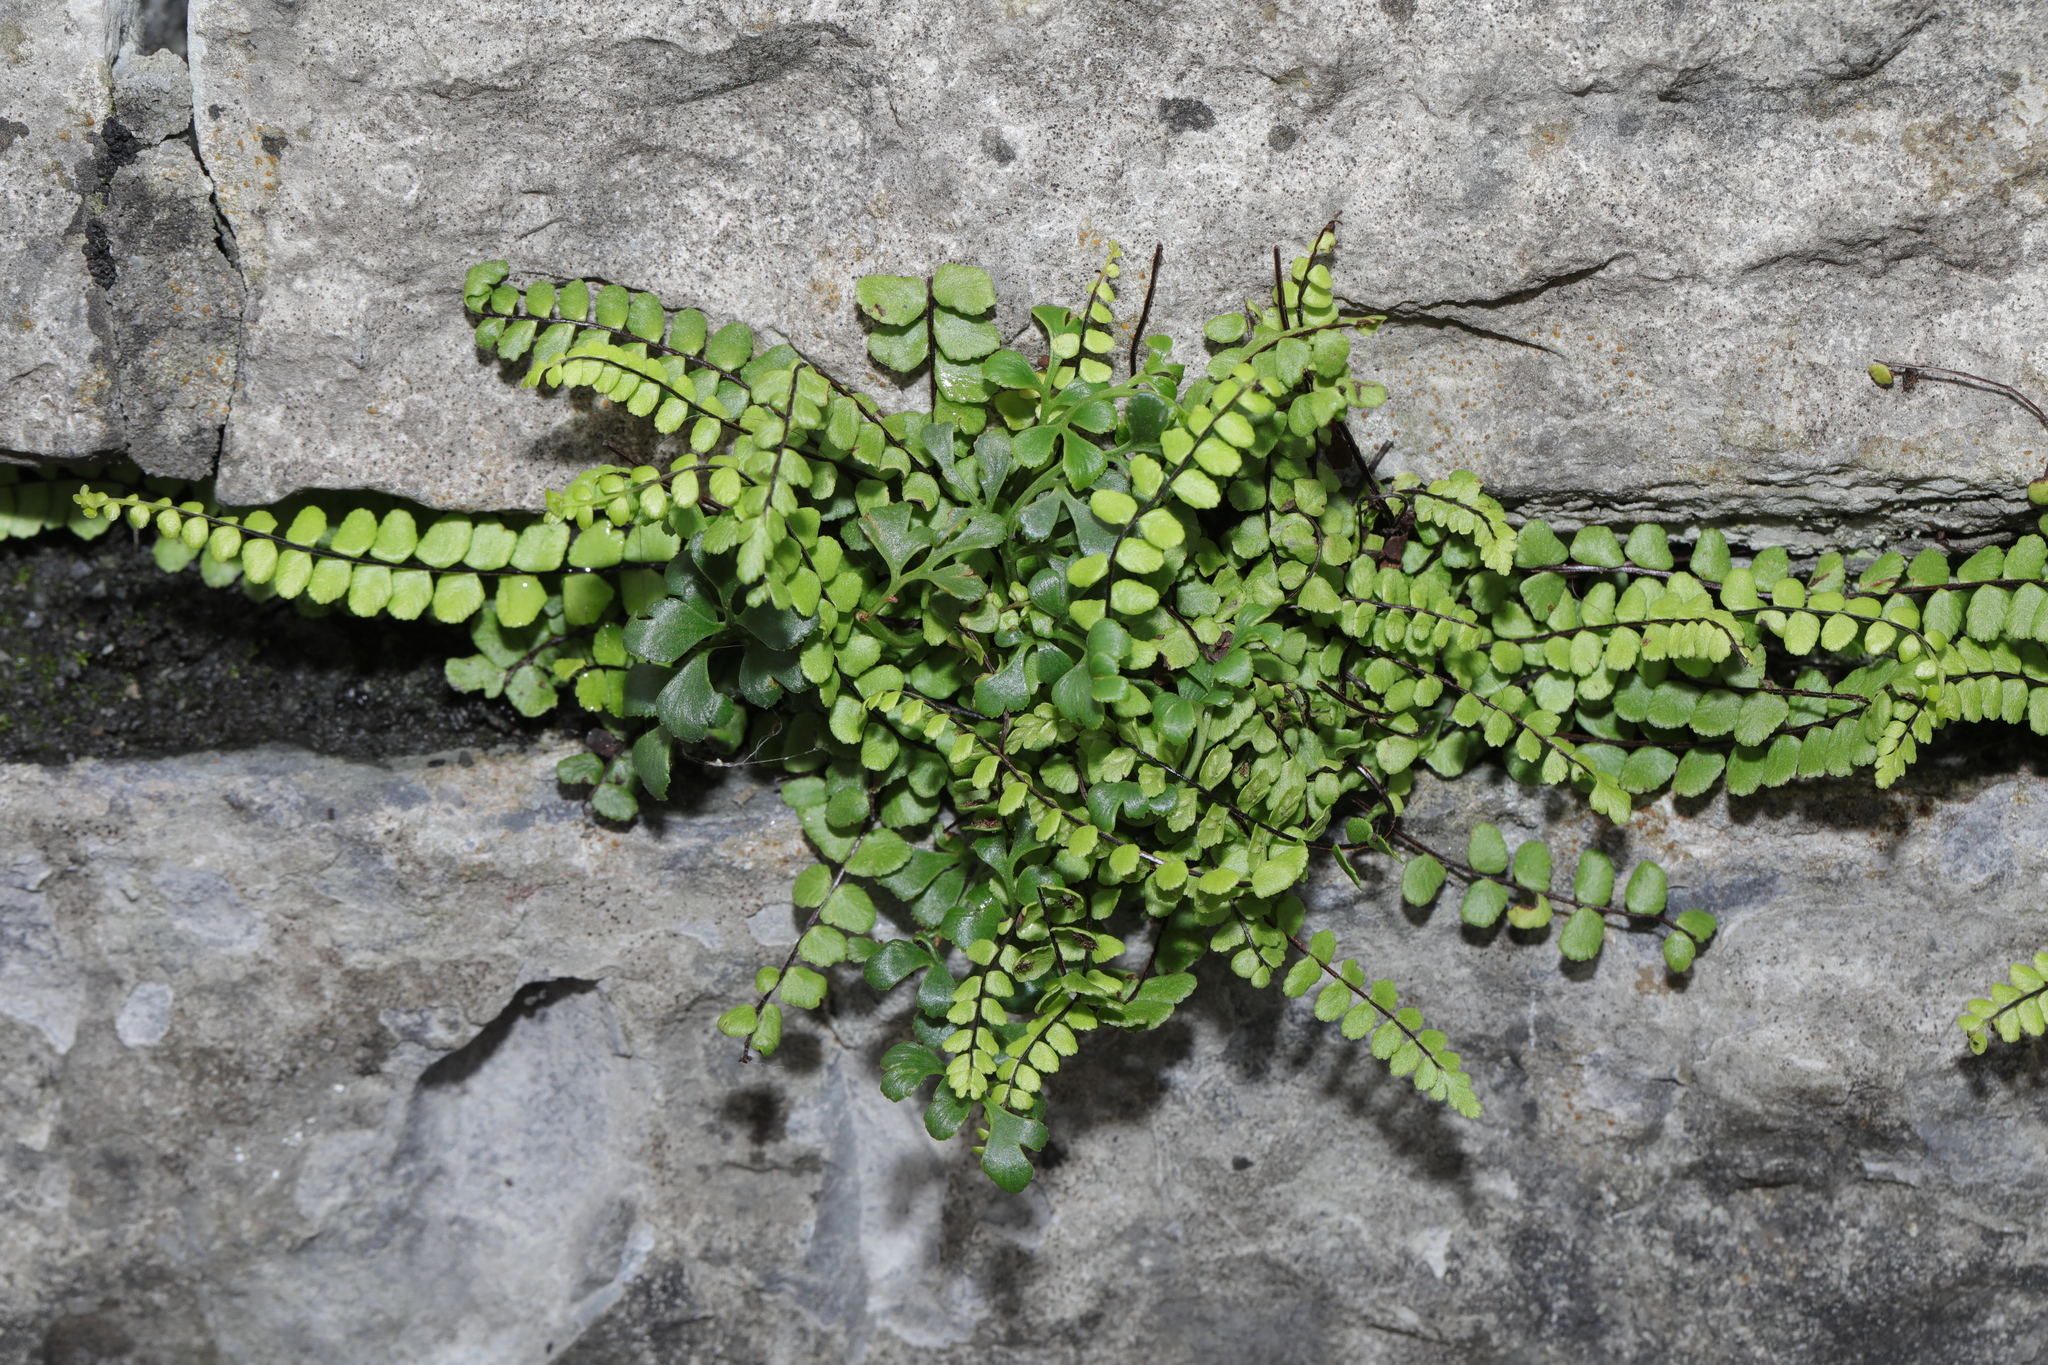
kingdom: Plantae
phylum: Tracheophyta
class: Polypodiopsida
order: Polypodiales
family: Aspleniaceae
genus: Asplenium
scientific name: Asplenium trichomanes
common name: Maidenhair spleenwort
